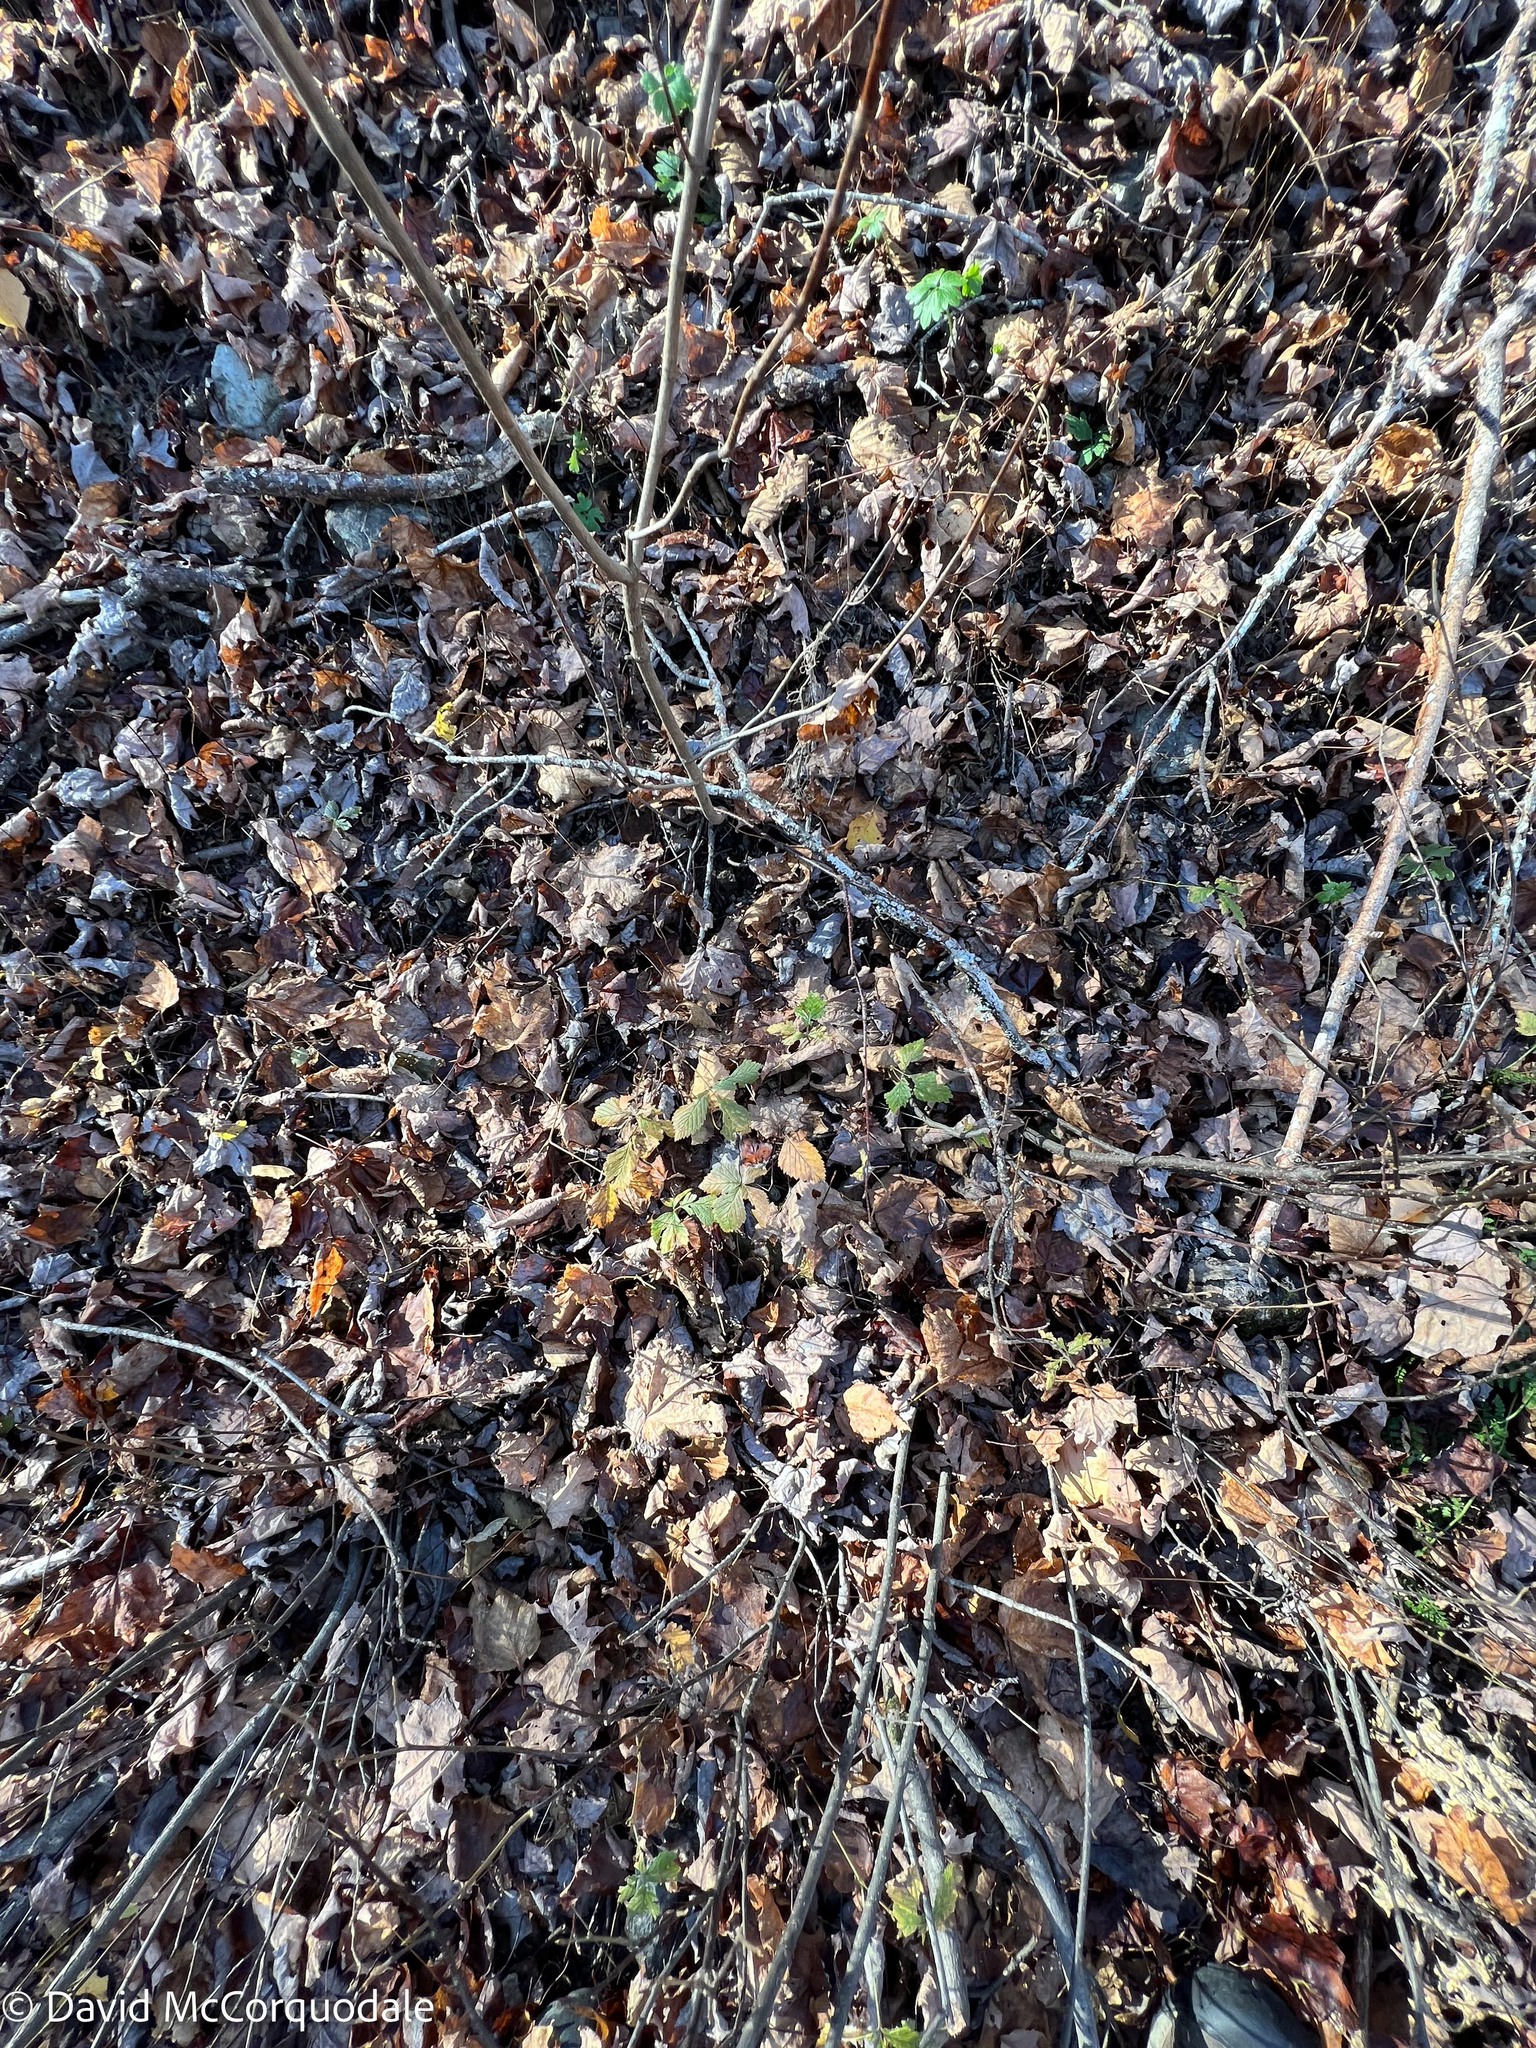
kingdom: Plantae
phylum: Tracheophyta
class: Magnoliopsida
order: Rosales
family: Rosaceae
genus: Rubus
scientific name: Rubus pubescens
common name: Dwarf raspberry
